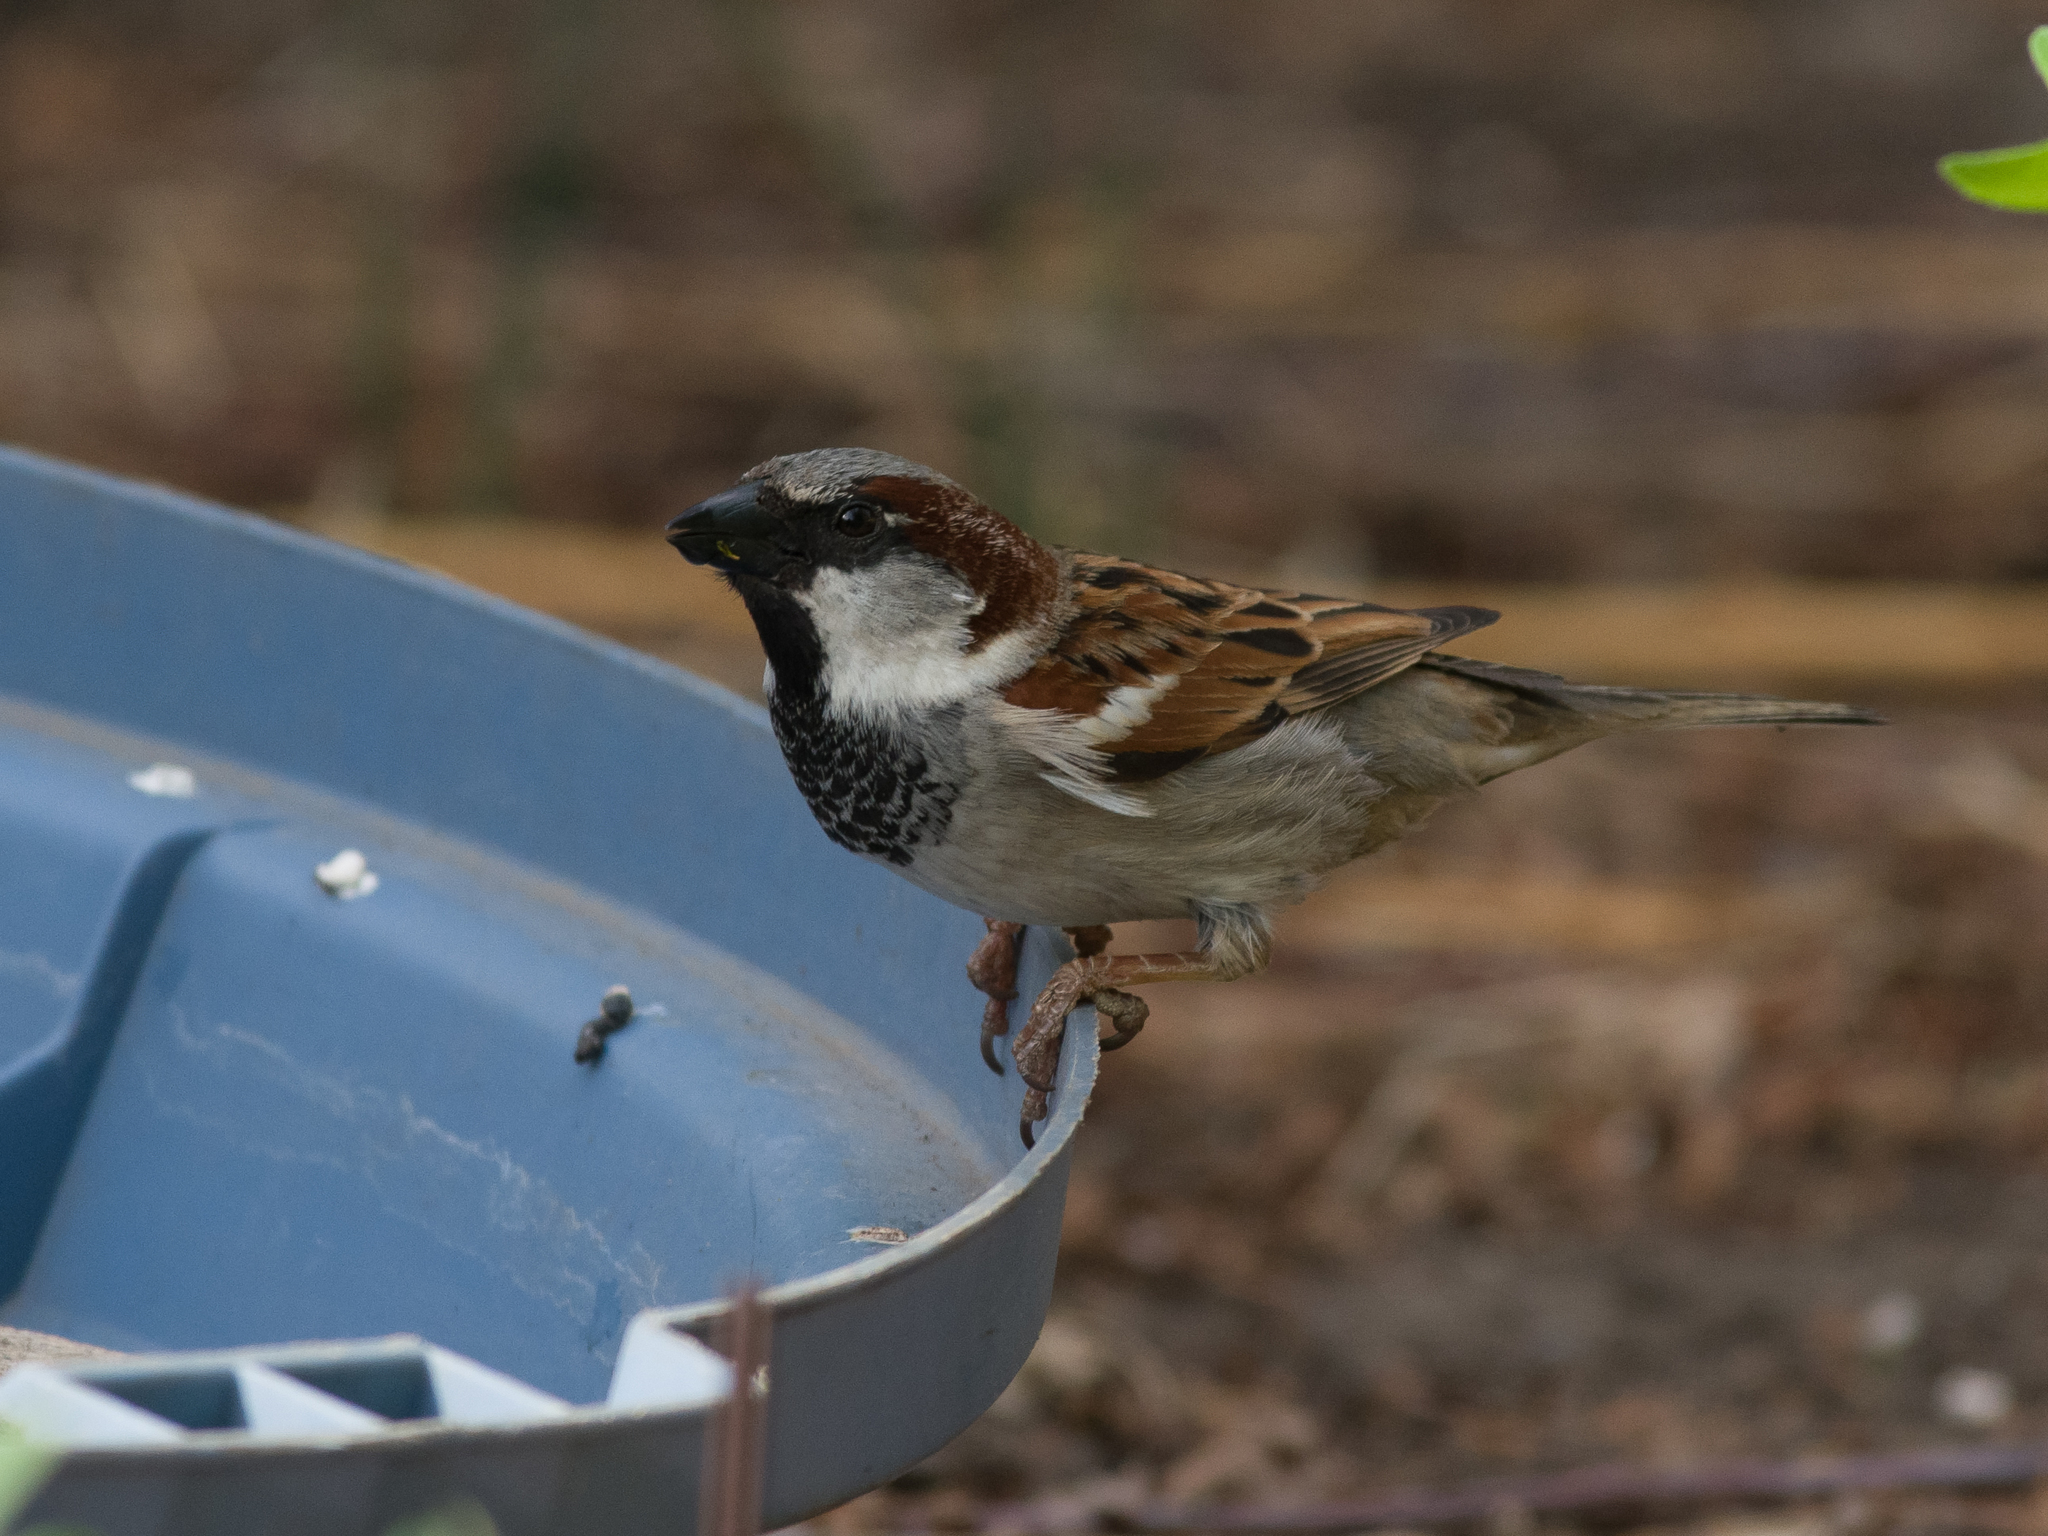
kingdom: Animalia
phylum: Chordata
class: Aves
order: Passeriformes
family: Passeridae
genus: Passer
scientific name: Passer domesticus
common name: House sparrow
